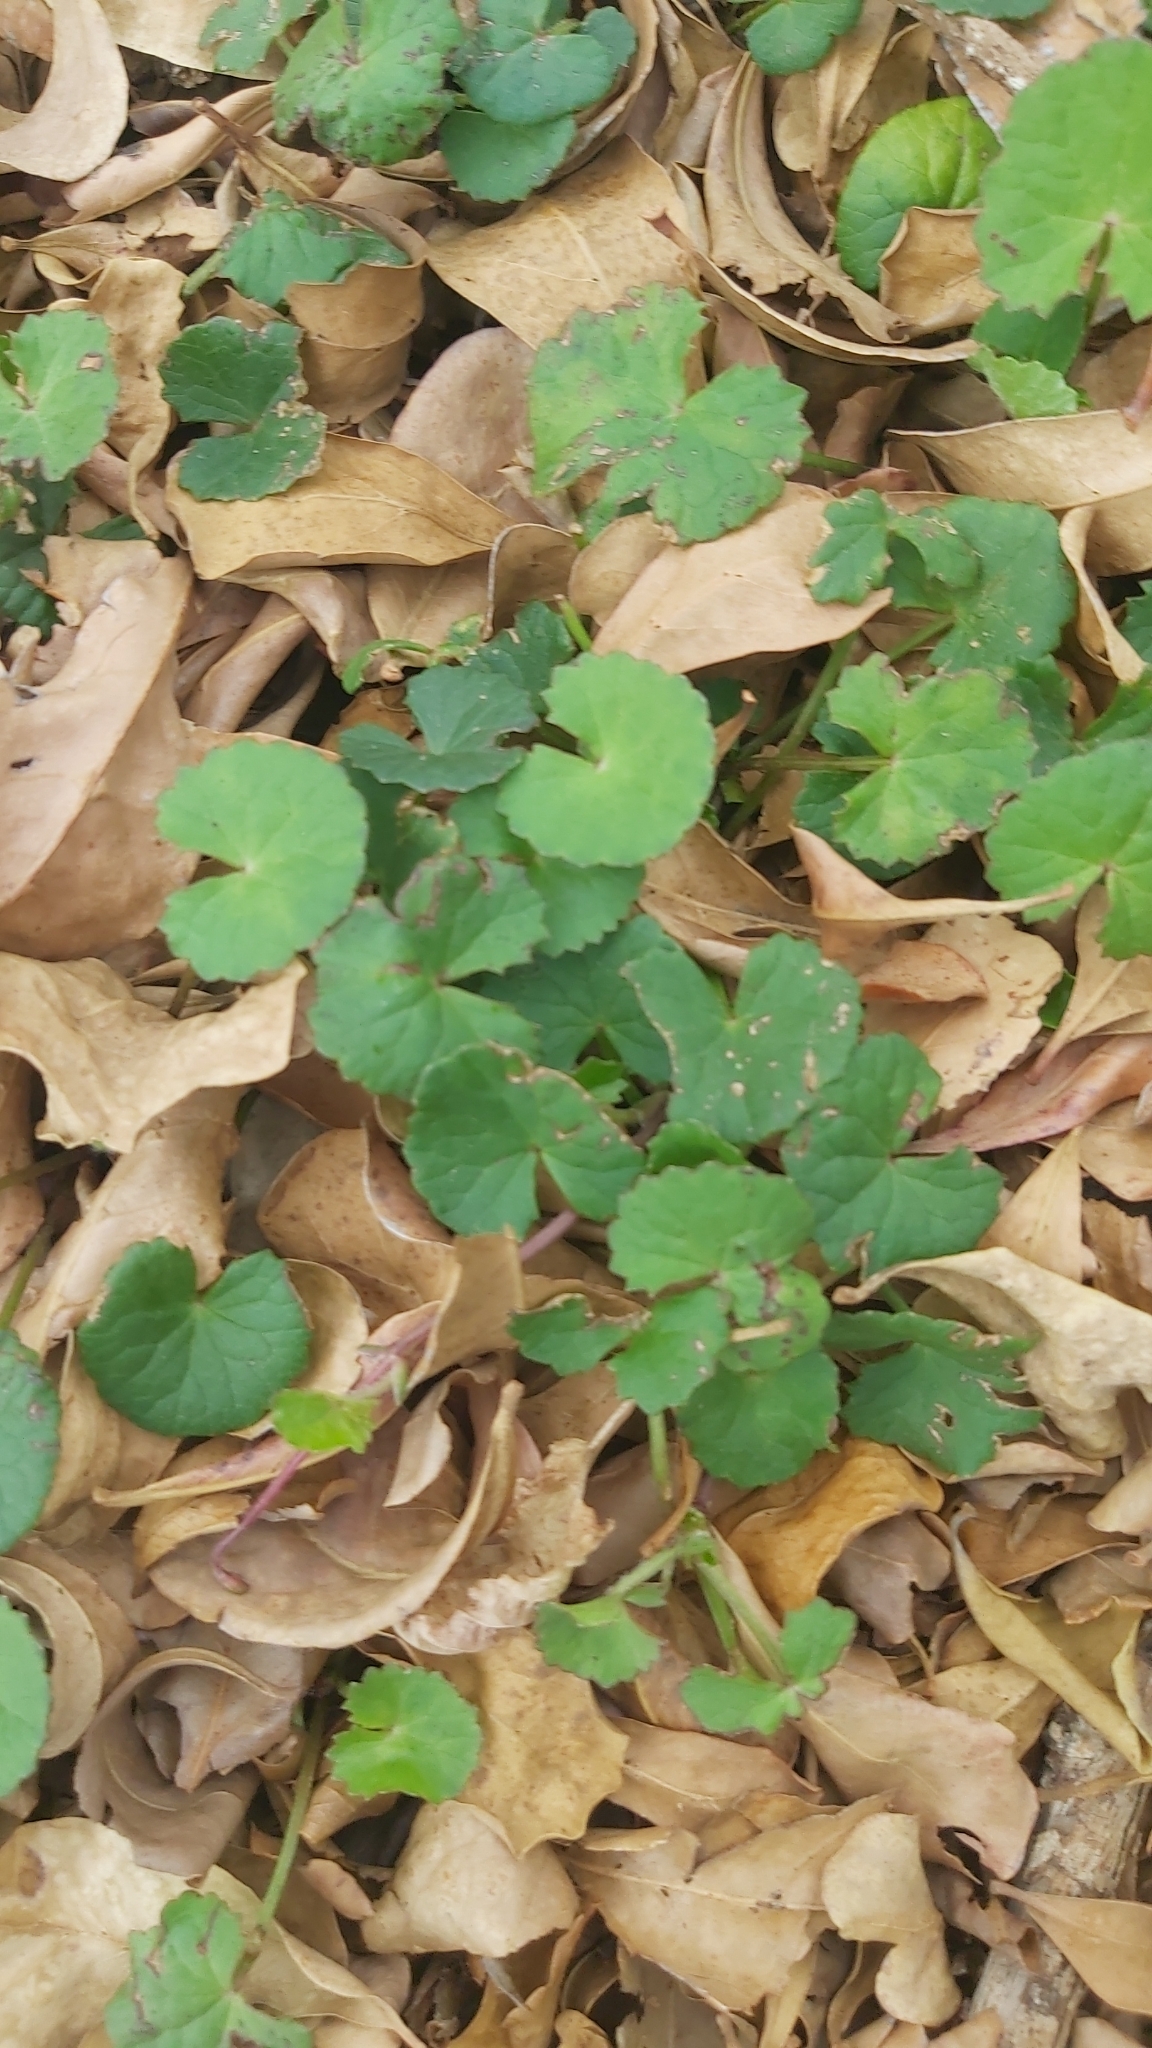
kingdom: Plantae
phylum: Tracheophyta
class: Magnoliopsida
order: Apiales
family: Apiaceae
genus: Centella
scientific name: Centella asiatica
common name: Spadeleaf
